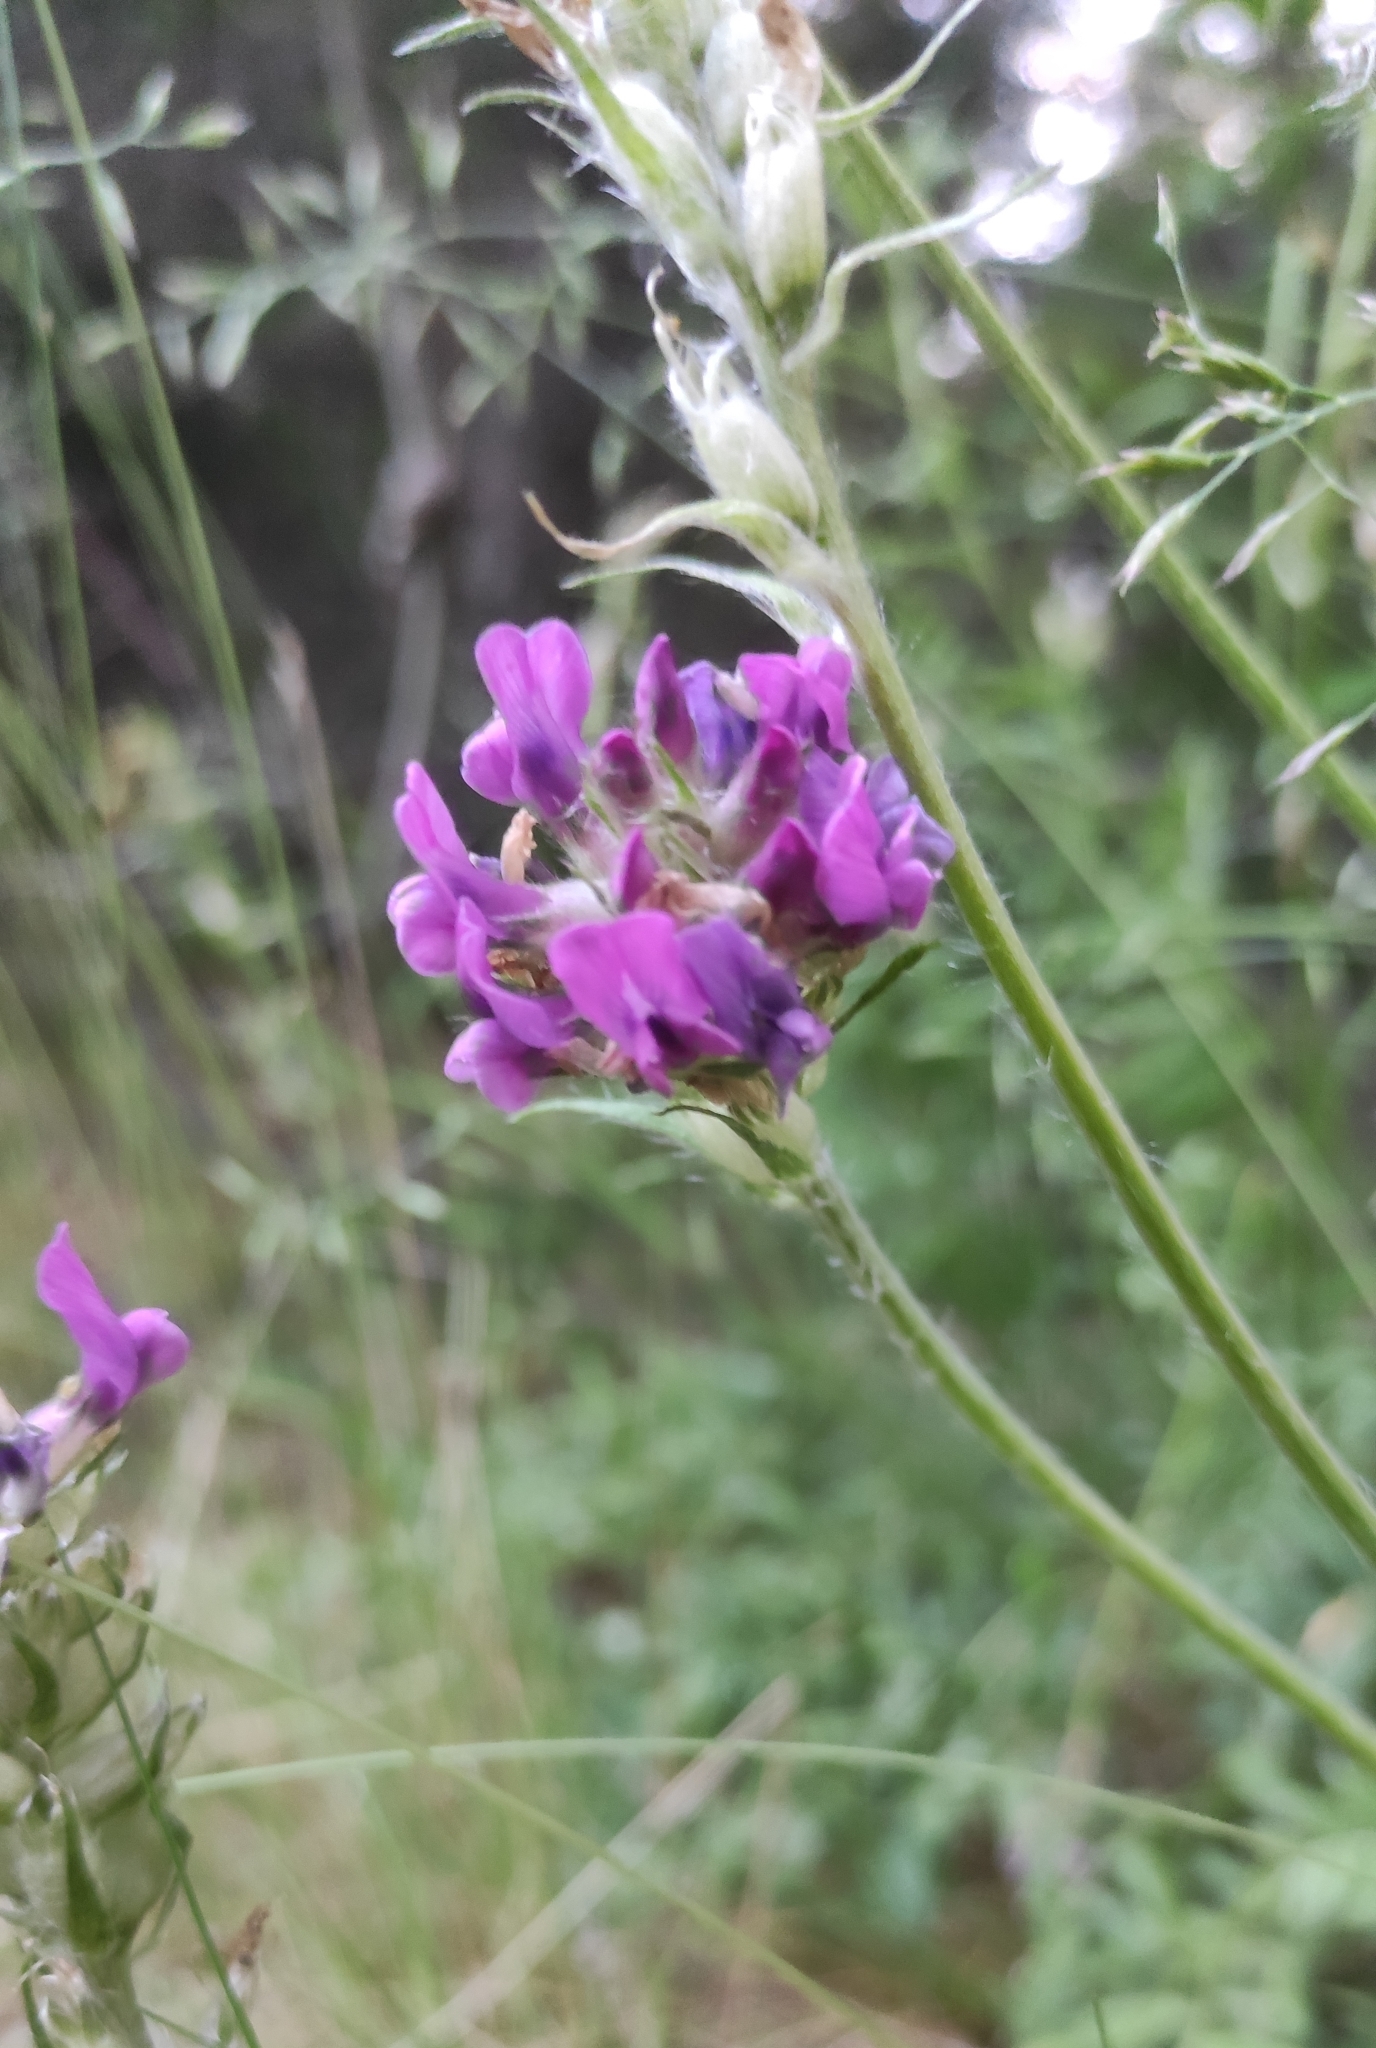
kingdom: Plantae
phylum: Tracheophyta
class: Magnoliopsida
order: Fabales
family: Fabaceae
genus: Oxytropis
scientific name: Oxytropis strobilacea
